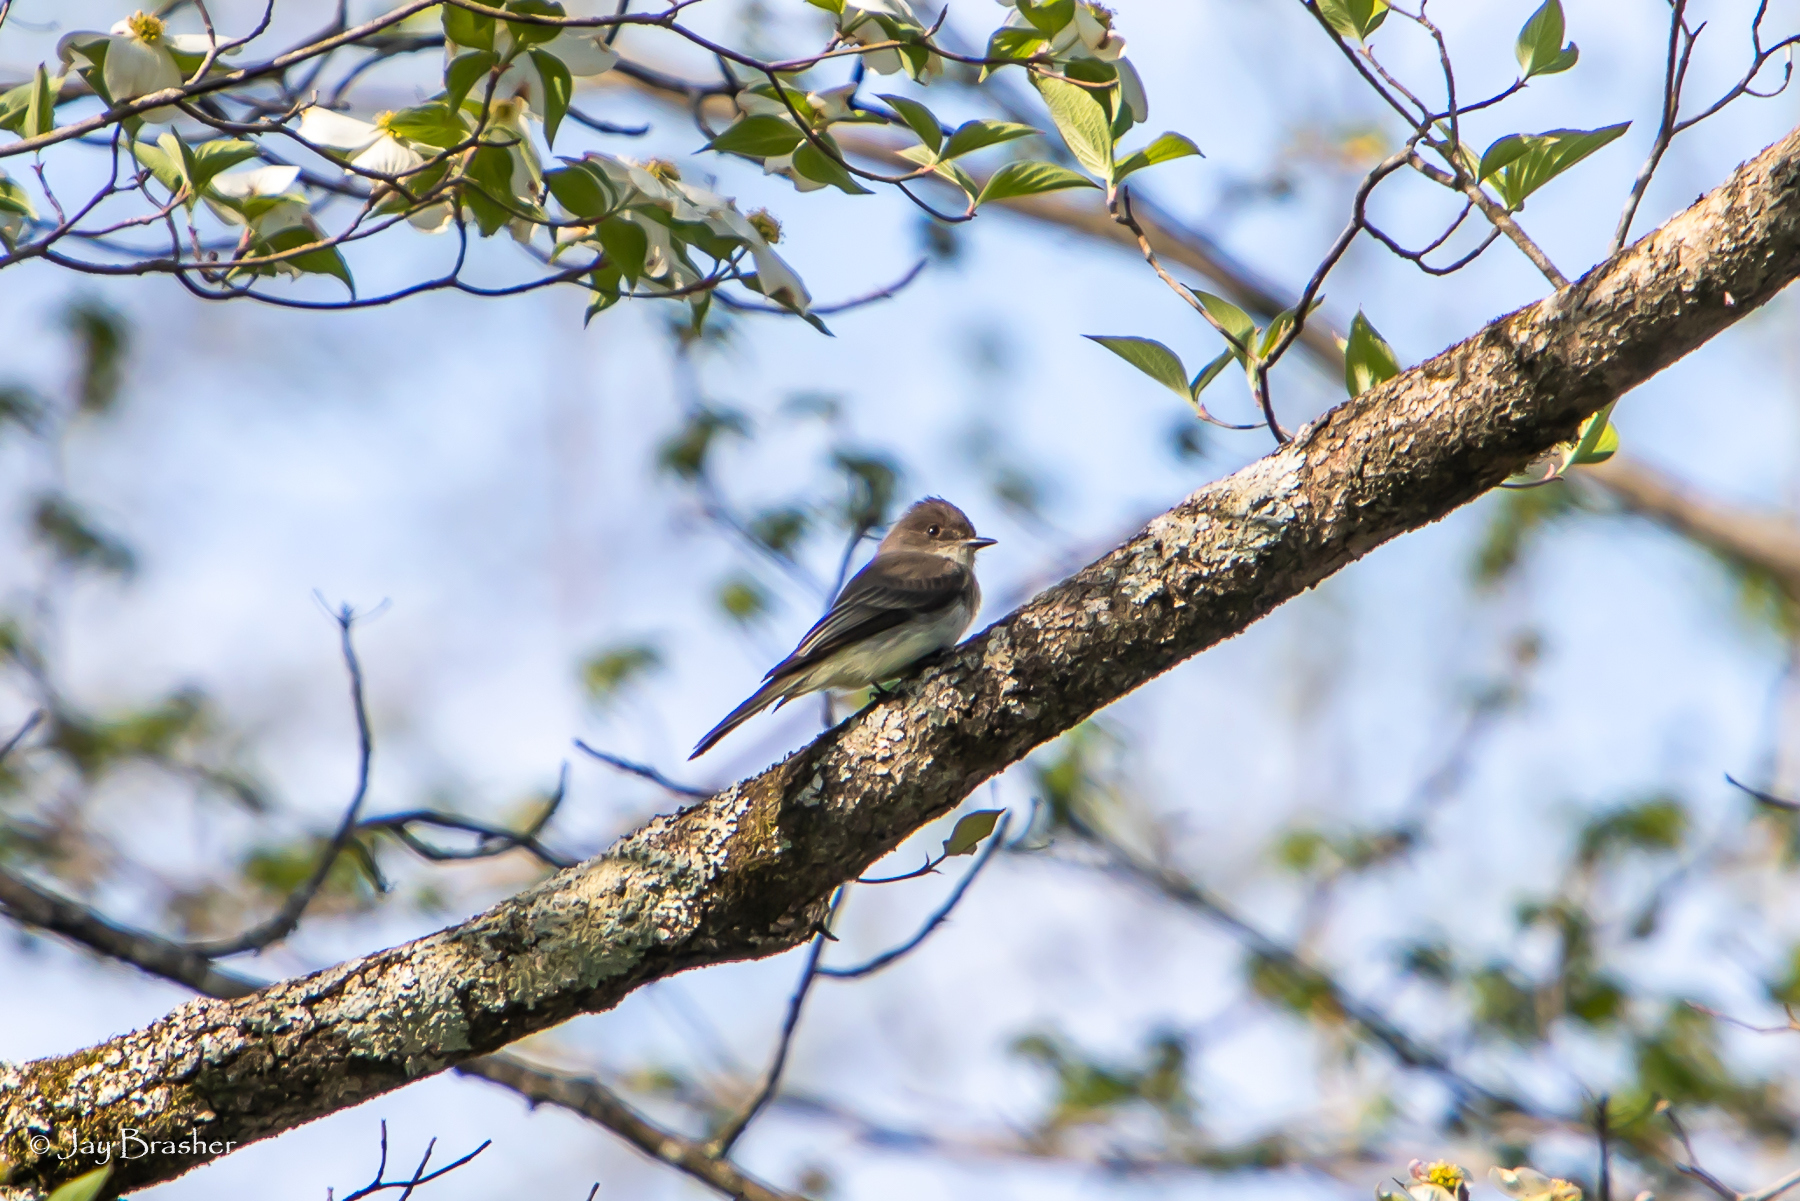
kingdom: Animalia
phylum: Chordata
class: Aves
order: Passeriformes
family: Tyrannidae
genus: Sayornis
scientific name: Sayornis phoebe
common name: Eastern phoebe
